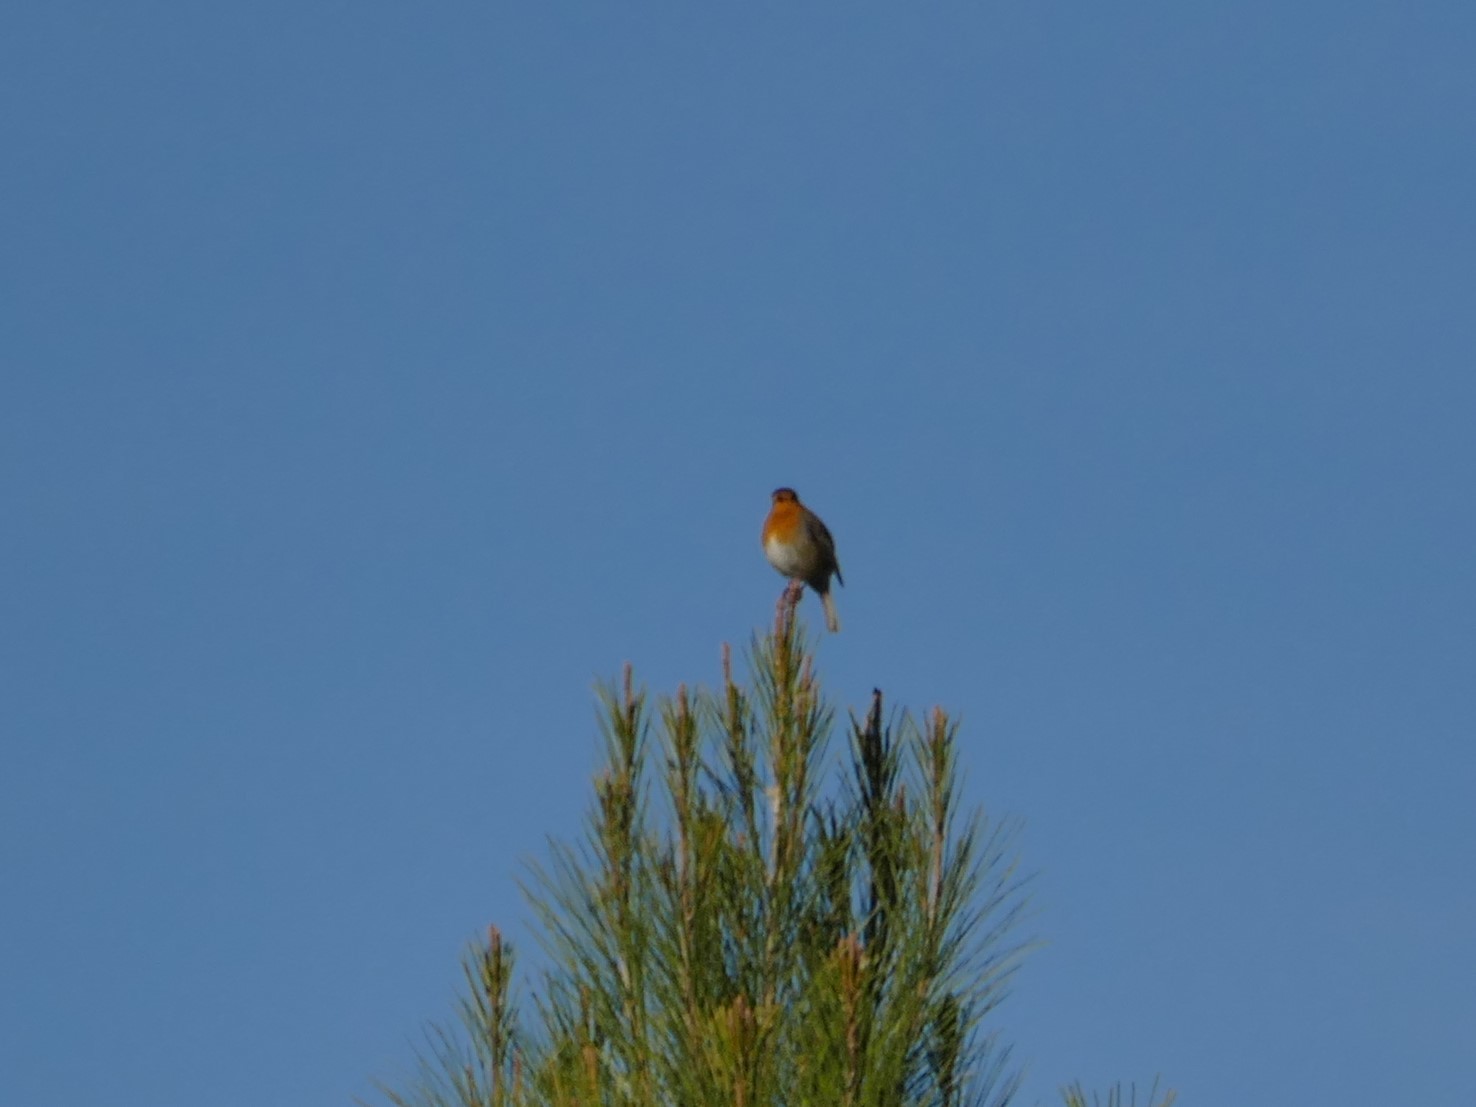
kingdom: Animalia
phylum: Chordata
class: Aves
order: Passeriformes
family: Muscicapidae
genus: Erithacus
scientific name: Erithacus rubecula
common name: European robin
